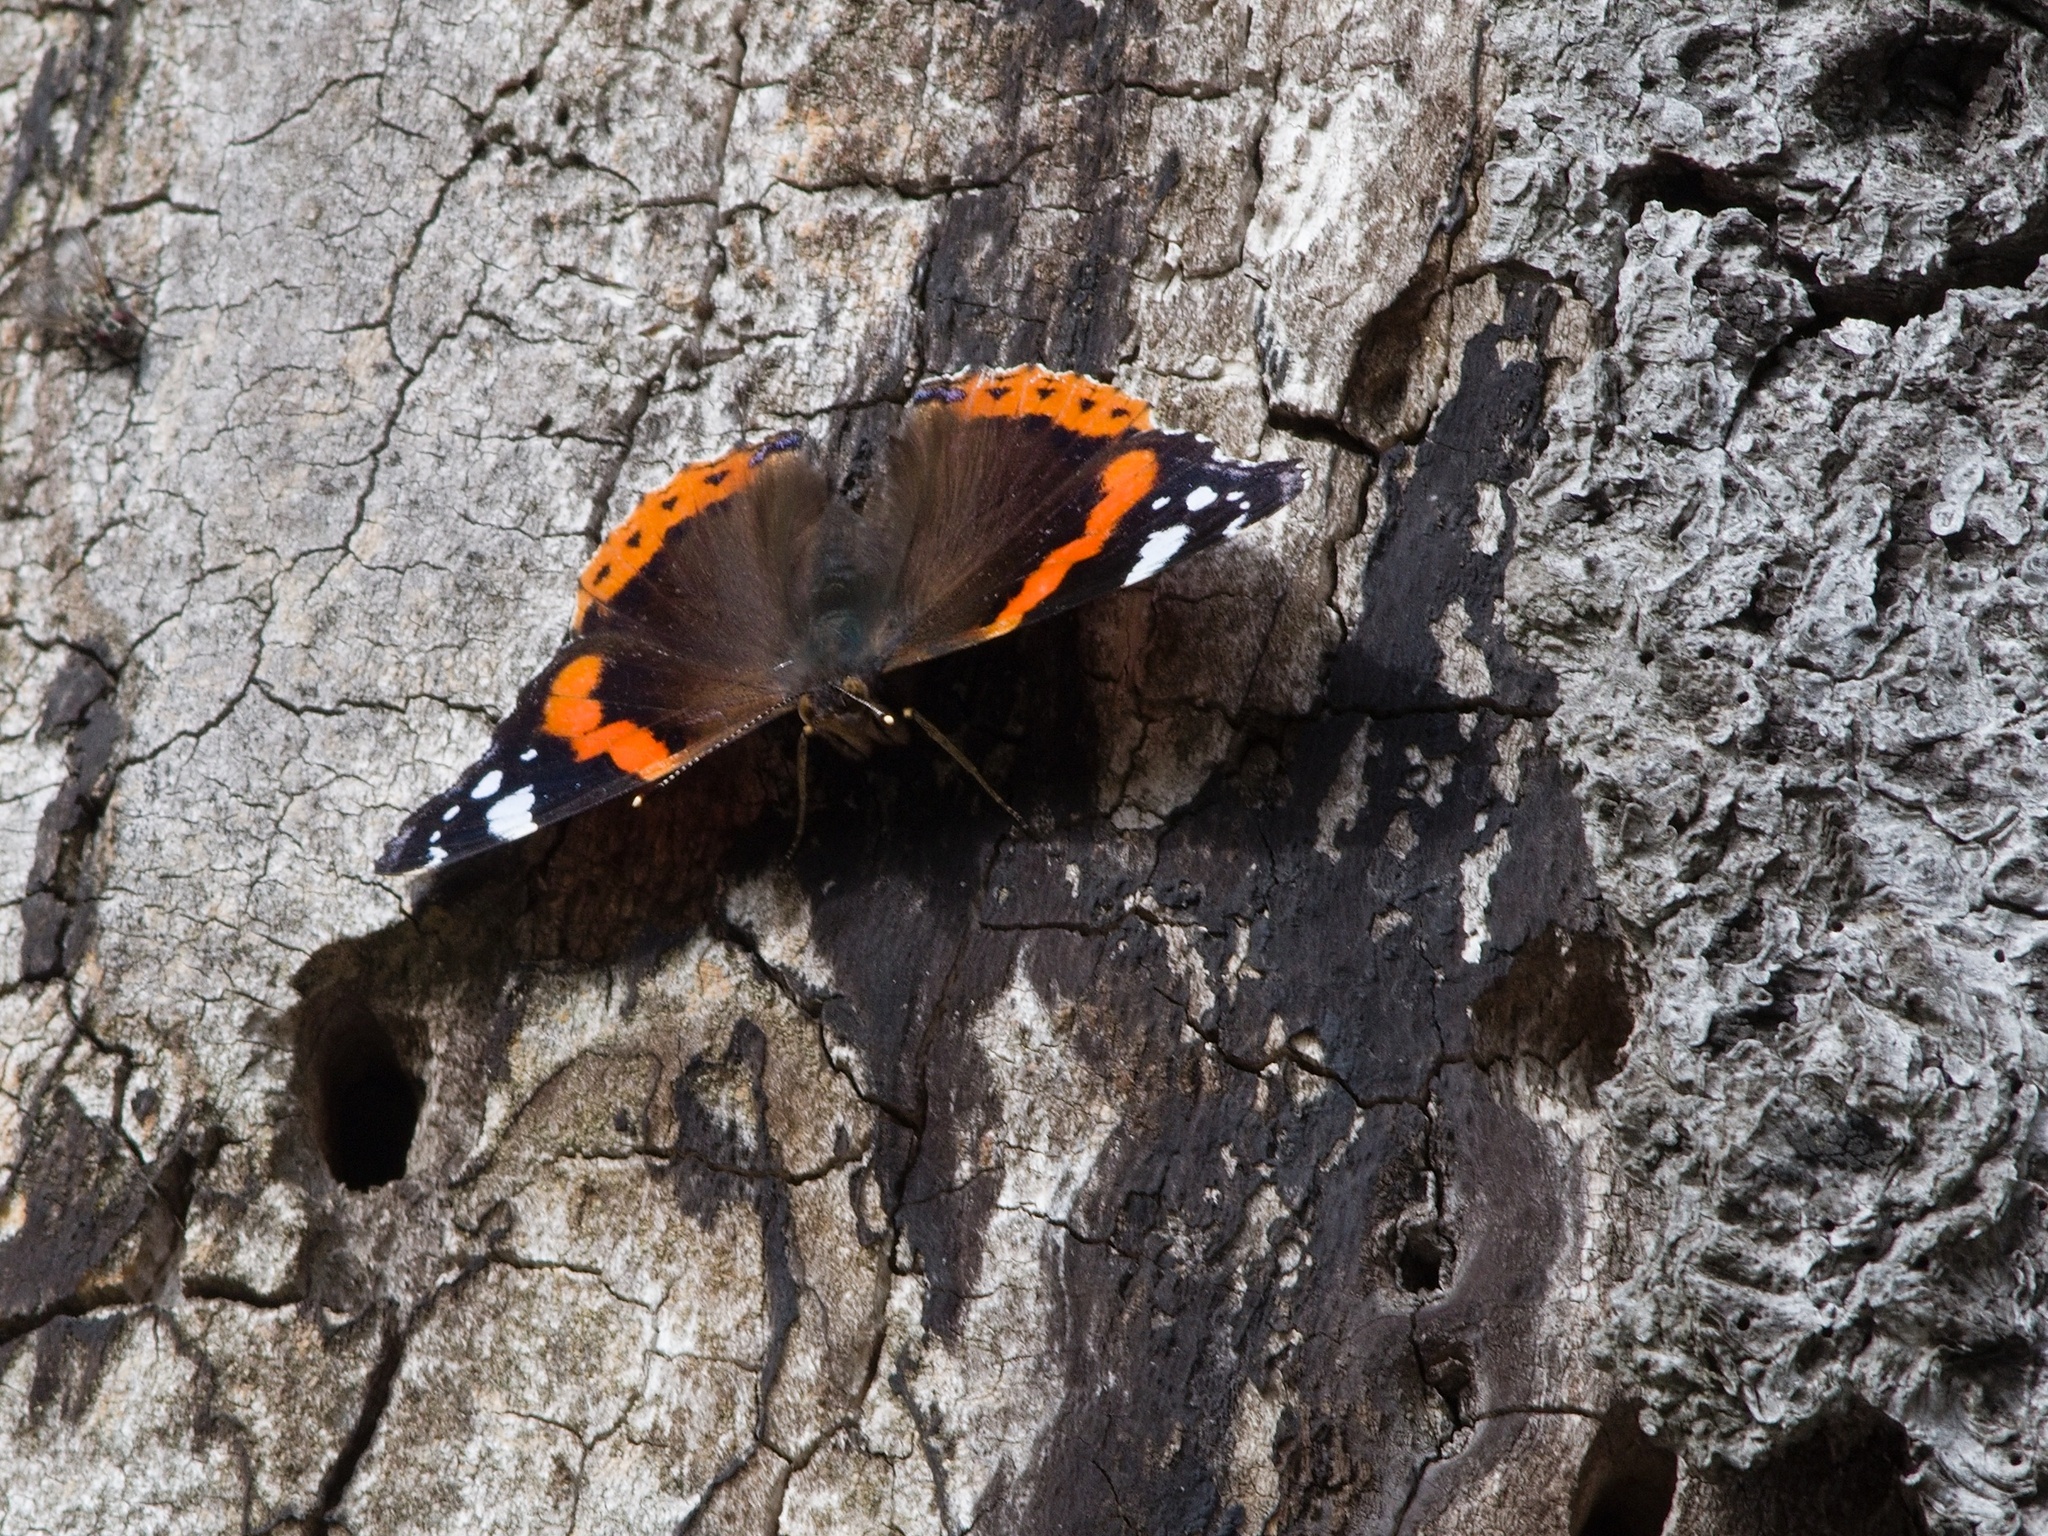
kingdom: Animalia
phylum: Arthropoda
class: Insecta
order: Lepidoptera
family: Nymphalidae
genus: Vanessa
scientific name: Vanessa atalanta
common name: Red admiral
